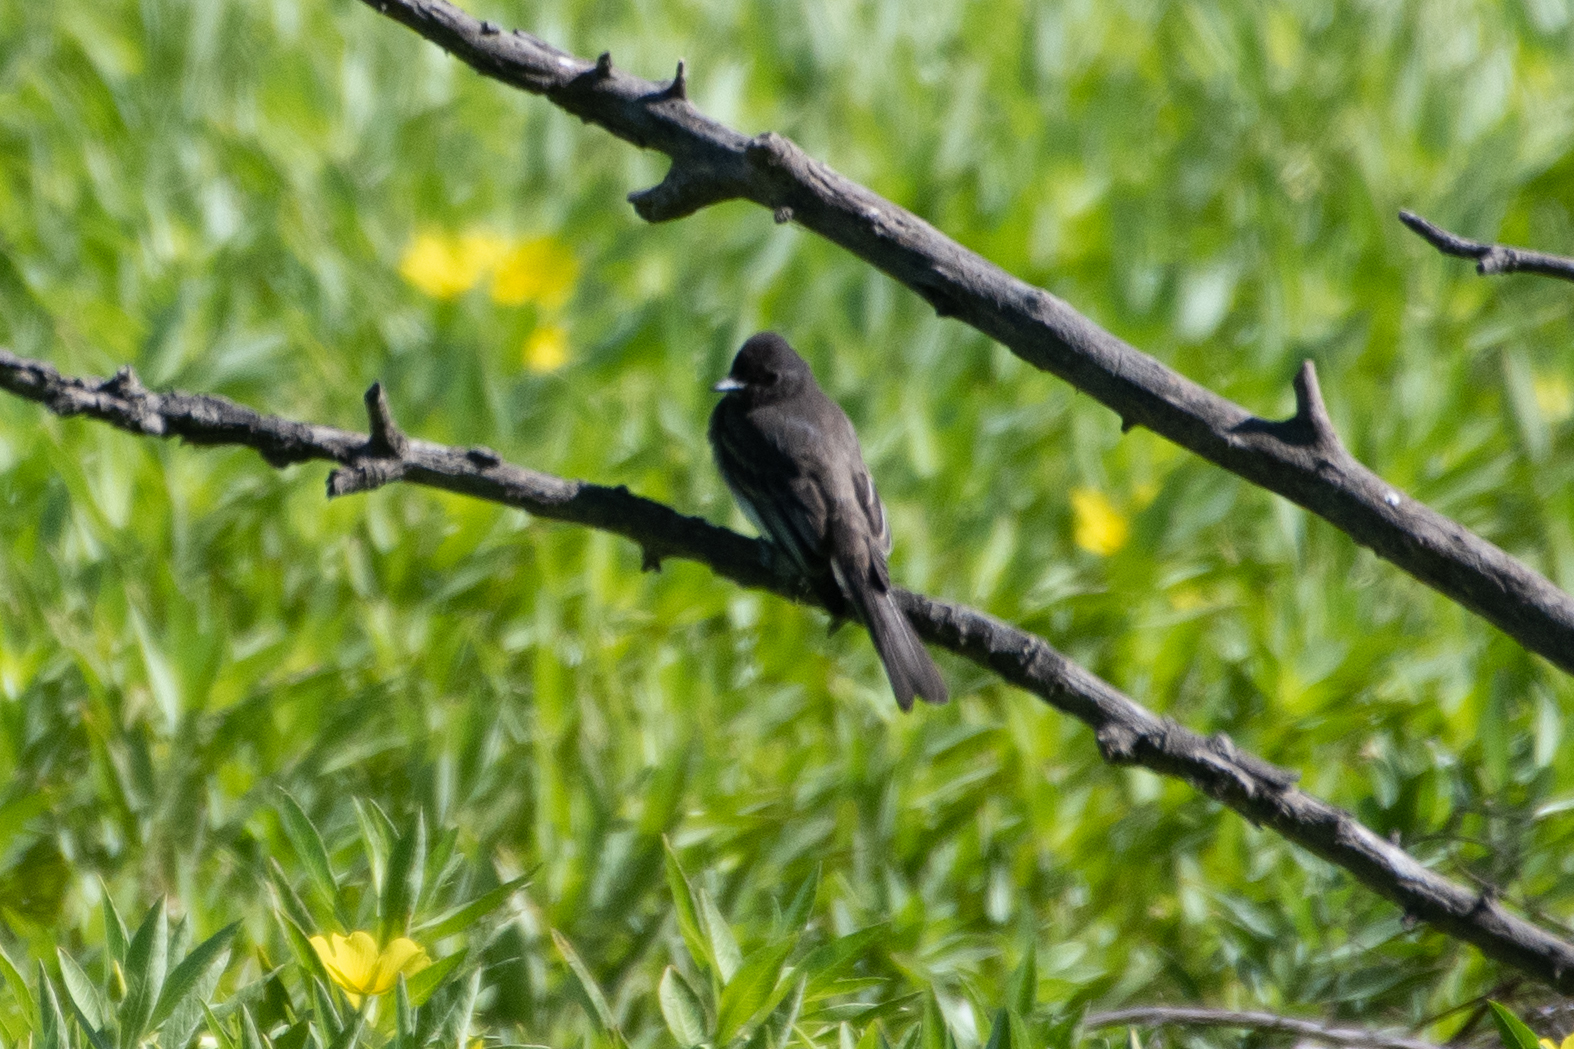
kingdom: Animalia
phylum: Chordata
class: Aves
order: Passeriformes
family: Tyrannidae
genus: Sayornis
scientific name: Sayornis nigricans
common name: Black phoebe
